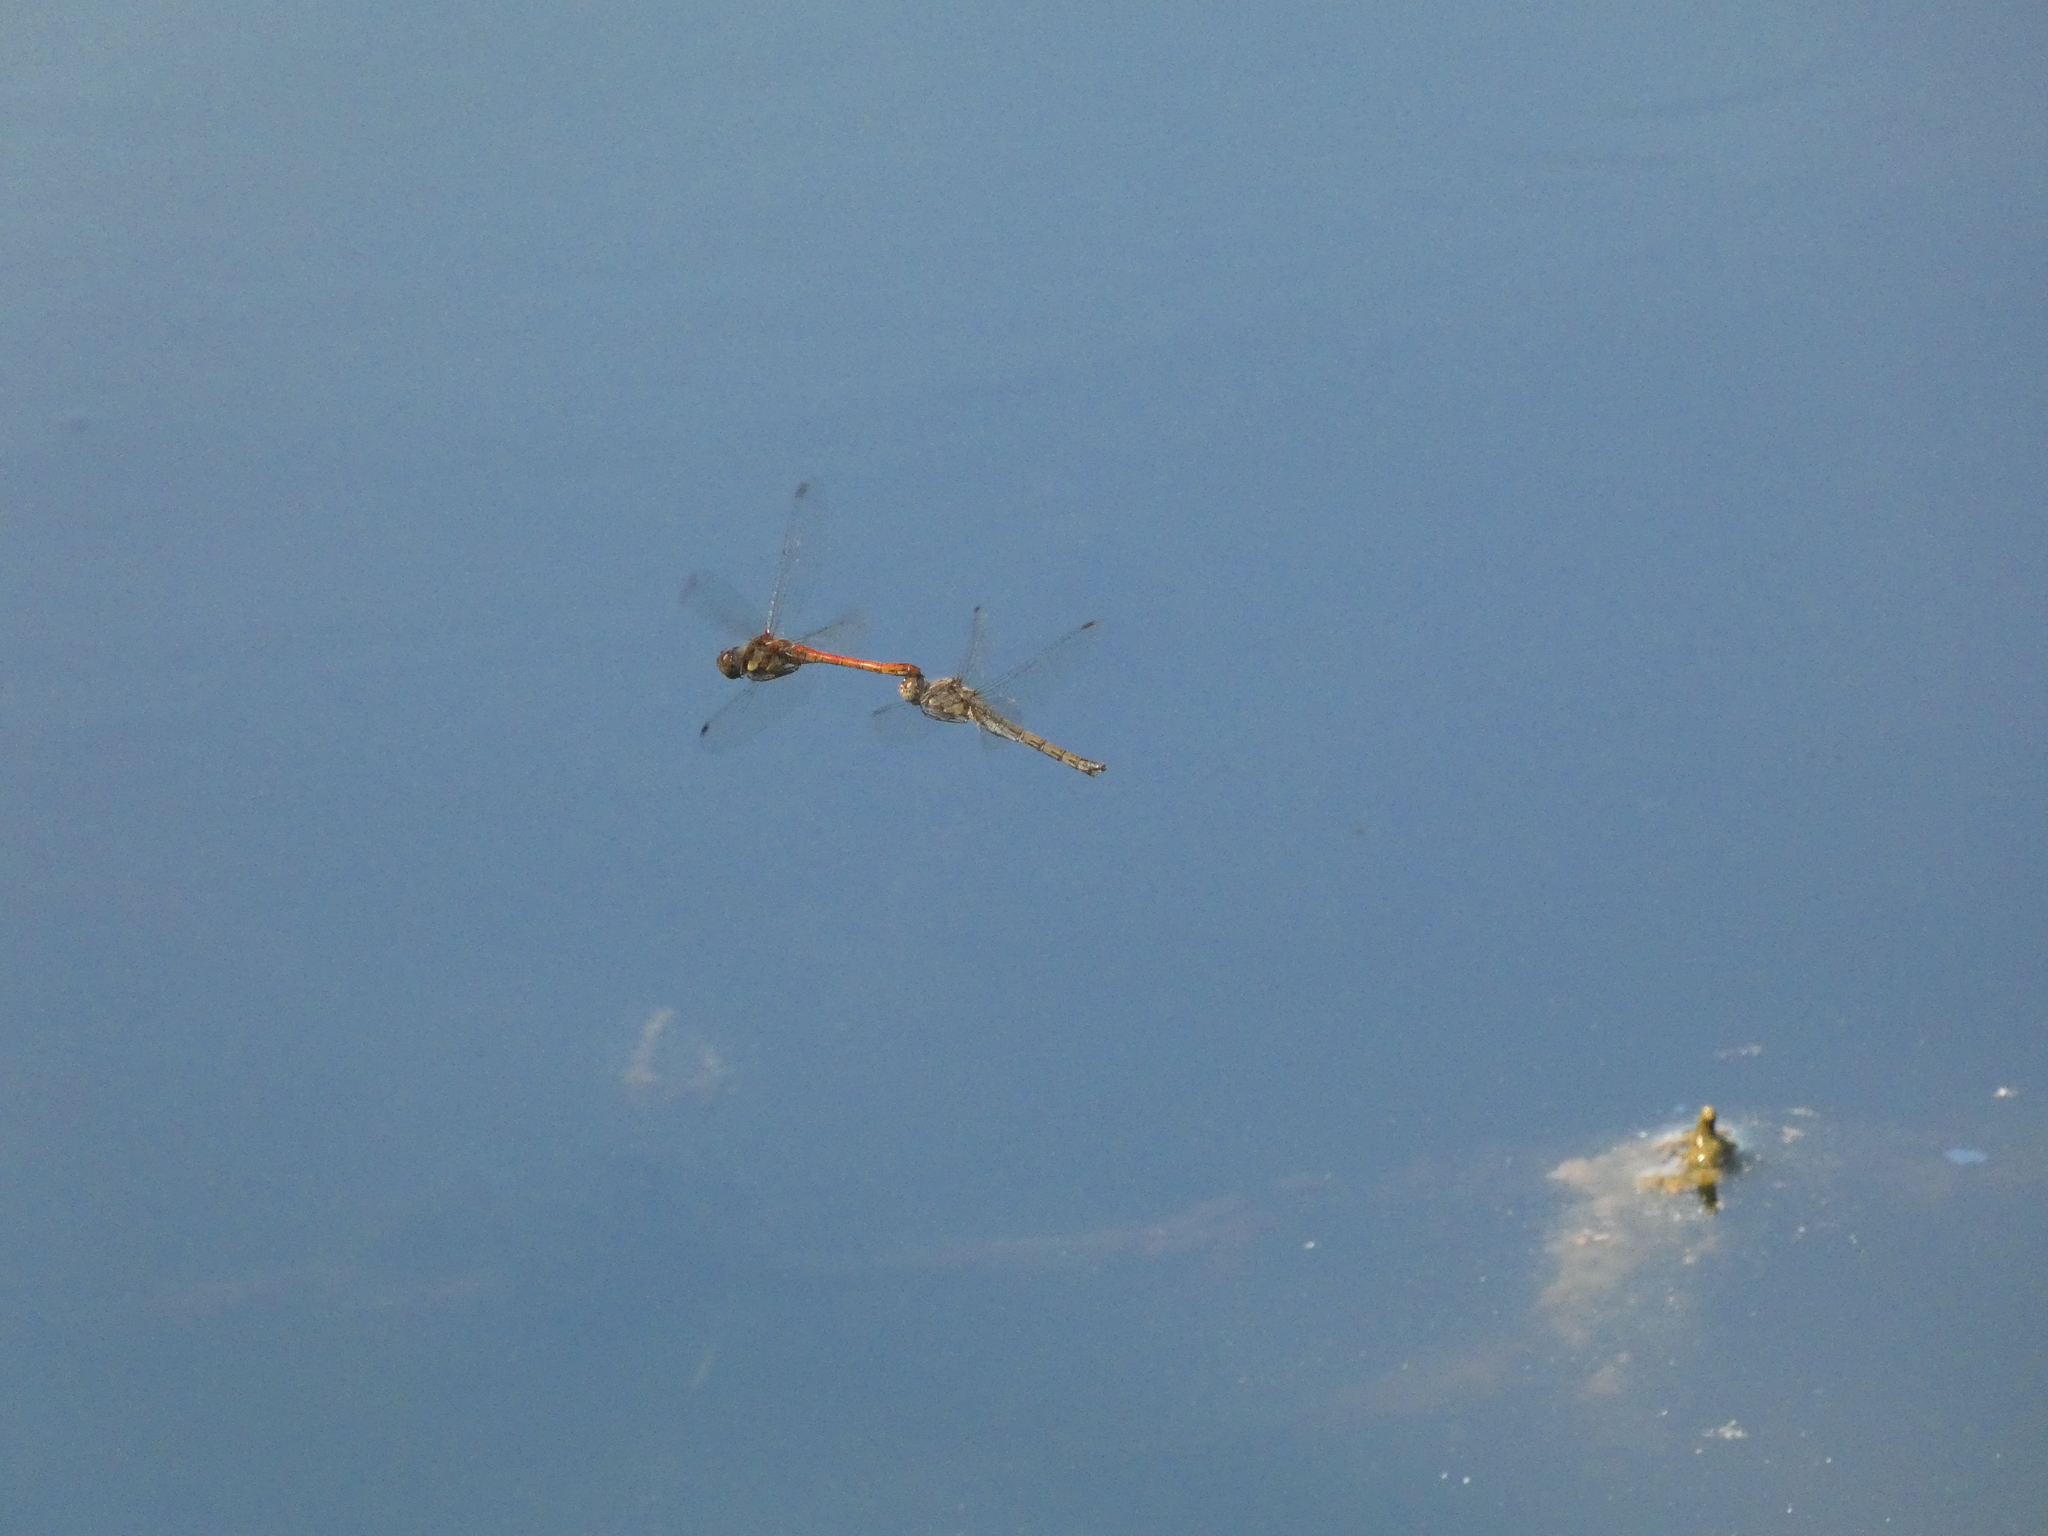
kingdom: Animalia
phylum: Arthropoda
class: Insecta
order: Odonata
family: Libellulidae
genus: Sympetrum
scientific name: Sympetrum striolatum
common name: Common darter
